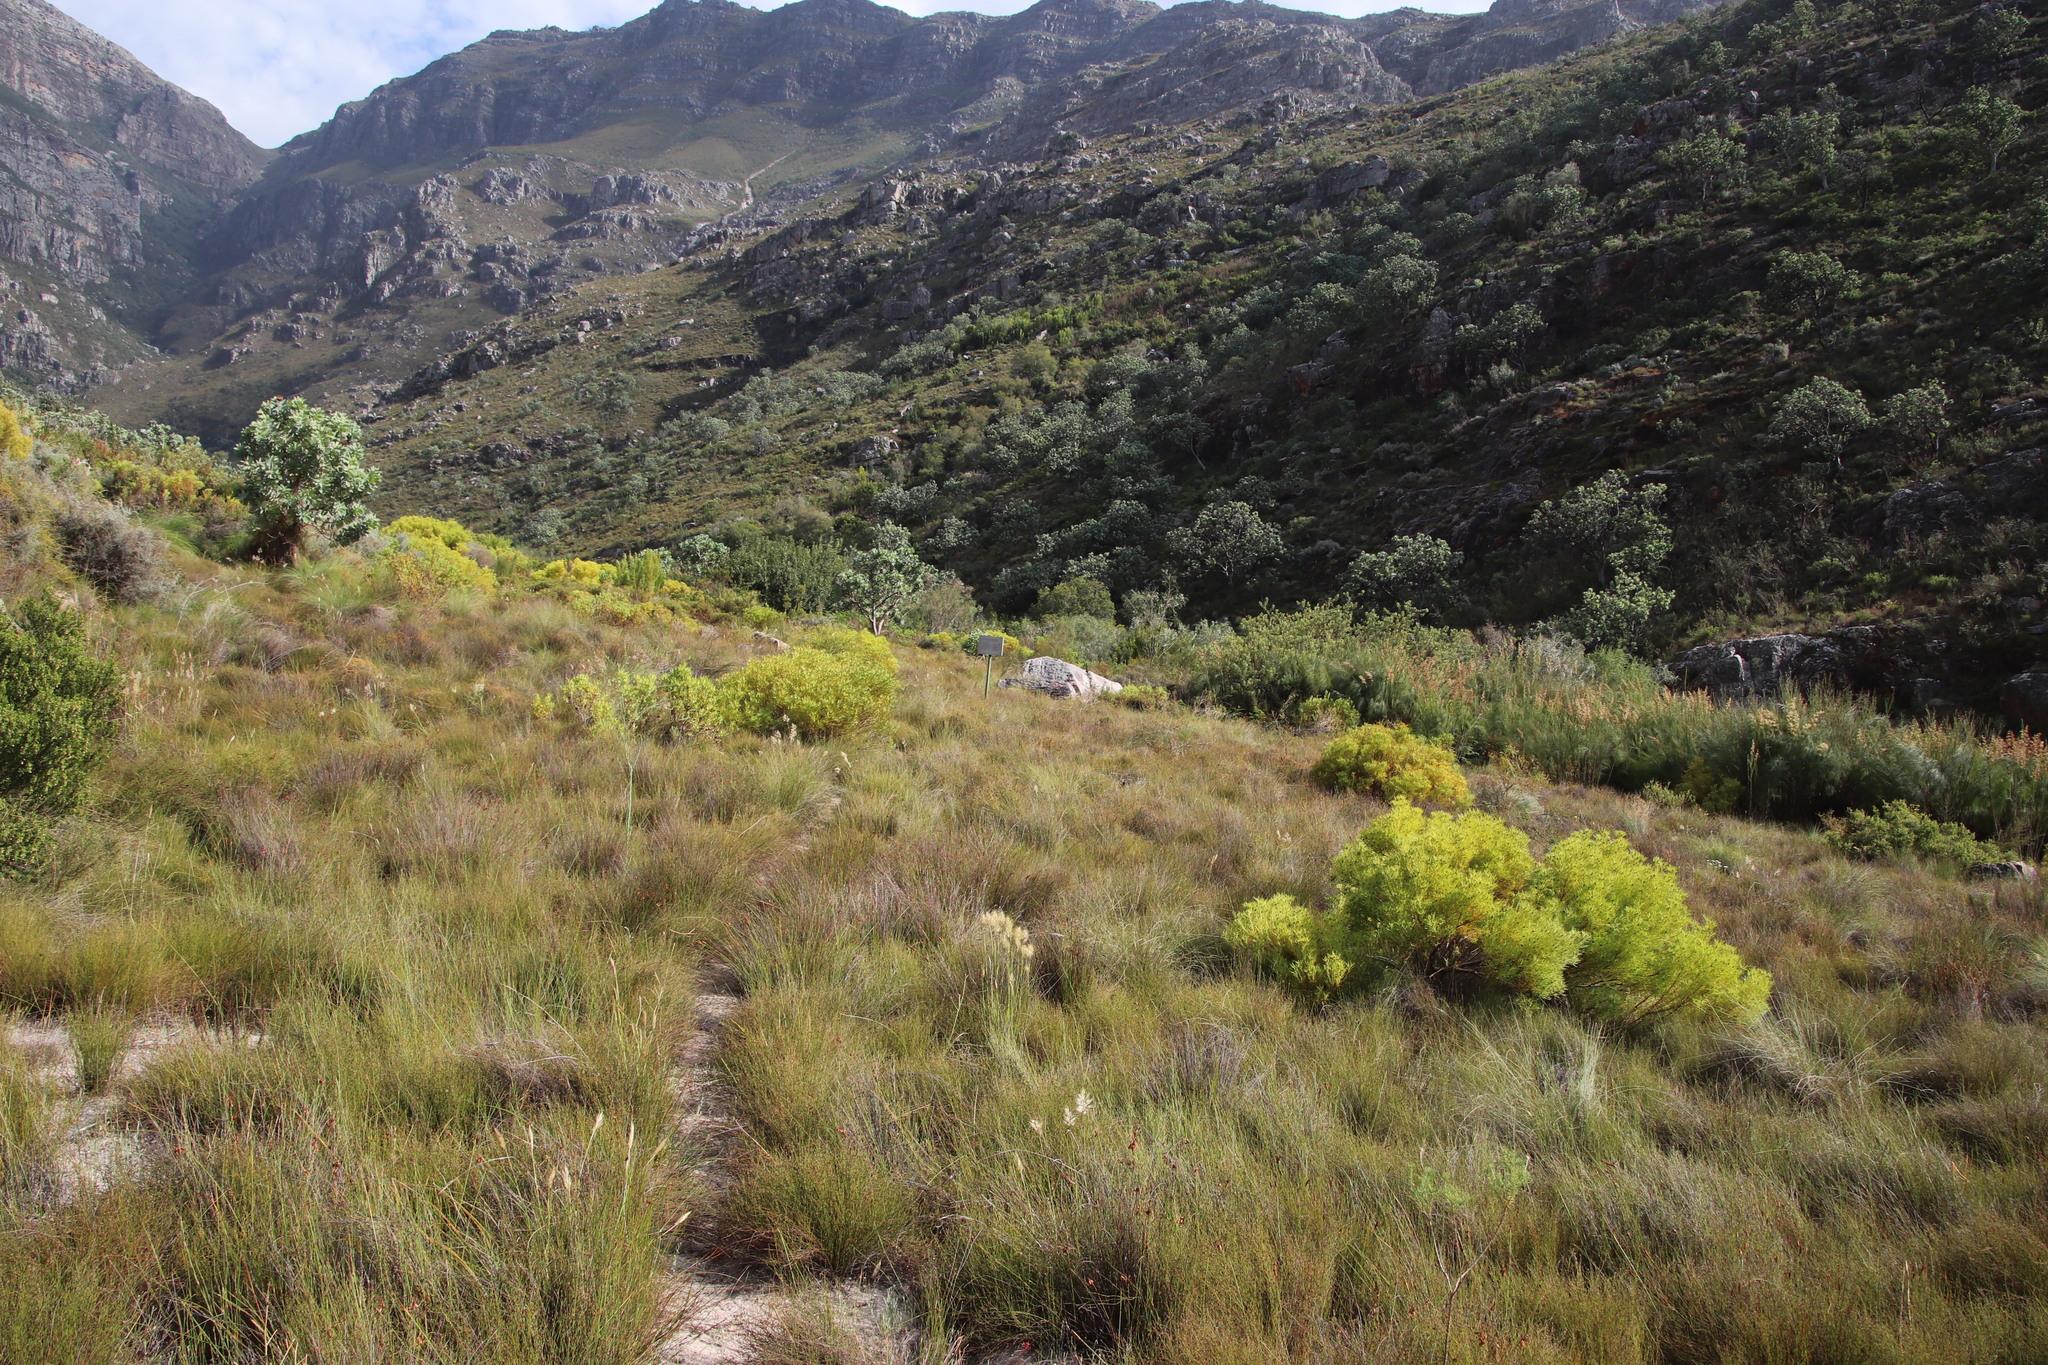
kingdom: Plantae
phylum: Tracheophyta
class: Magnoliopsida
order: Proteales
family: Proteaceae
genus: Leucadendron
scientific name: Leucadendron salignum
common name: Common sunshine conebush
